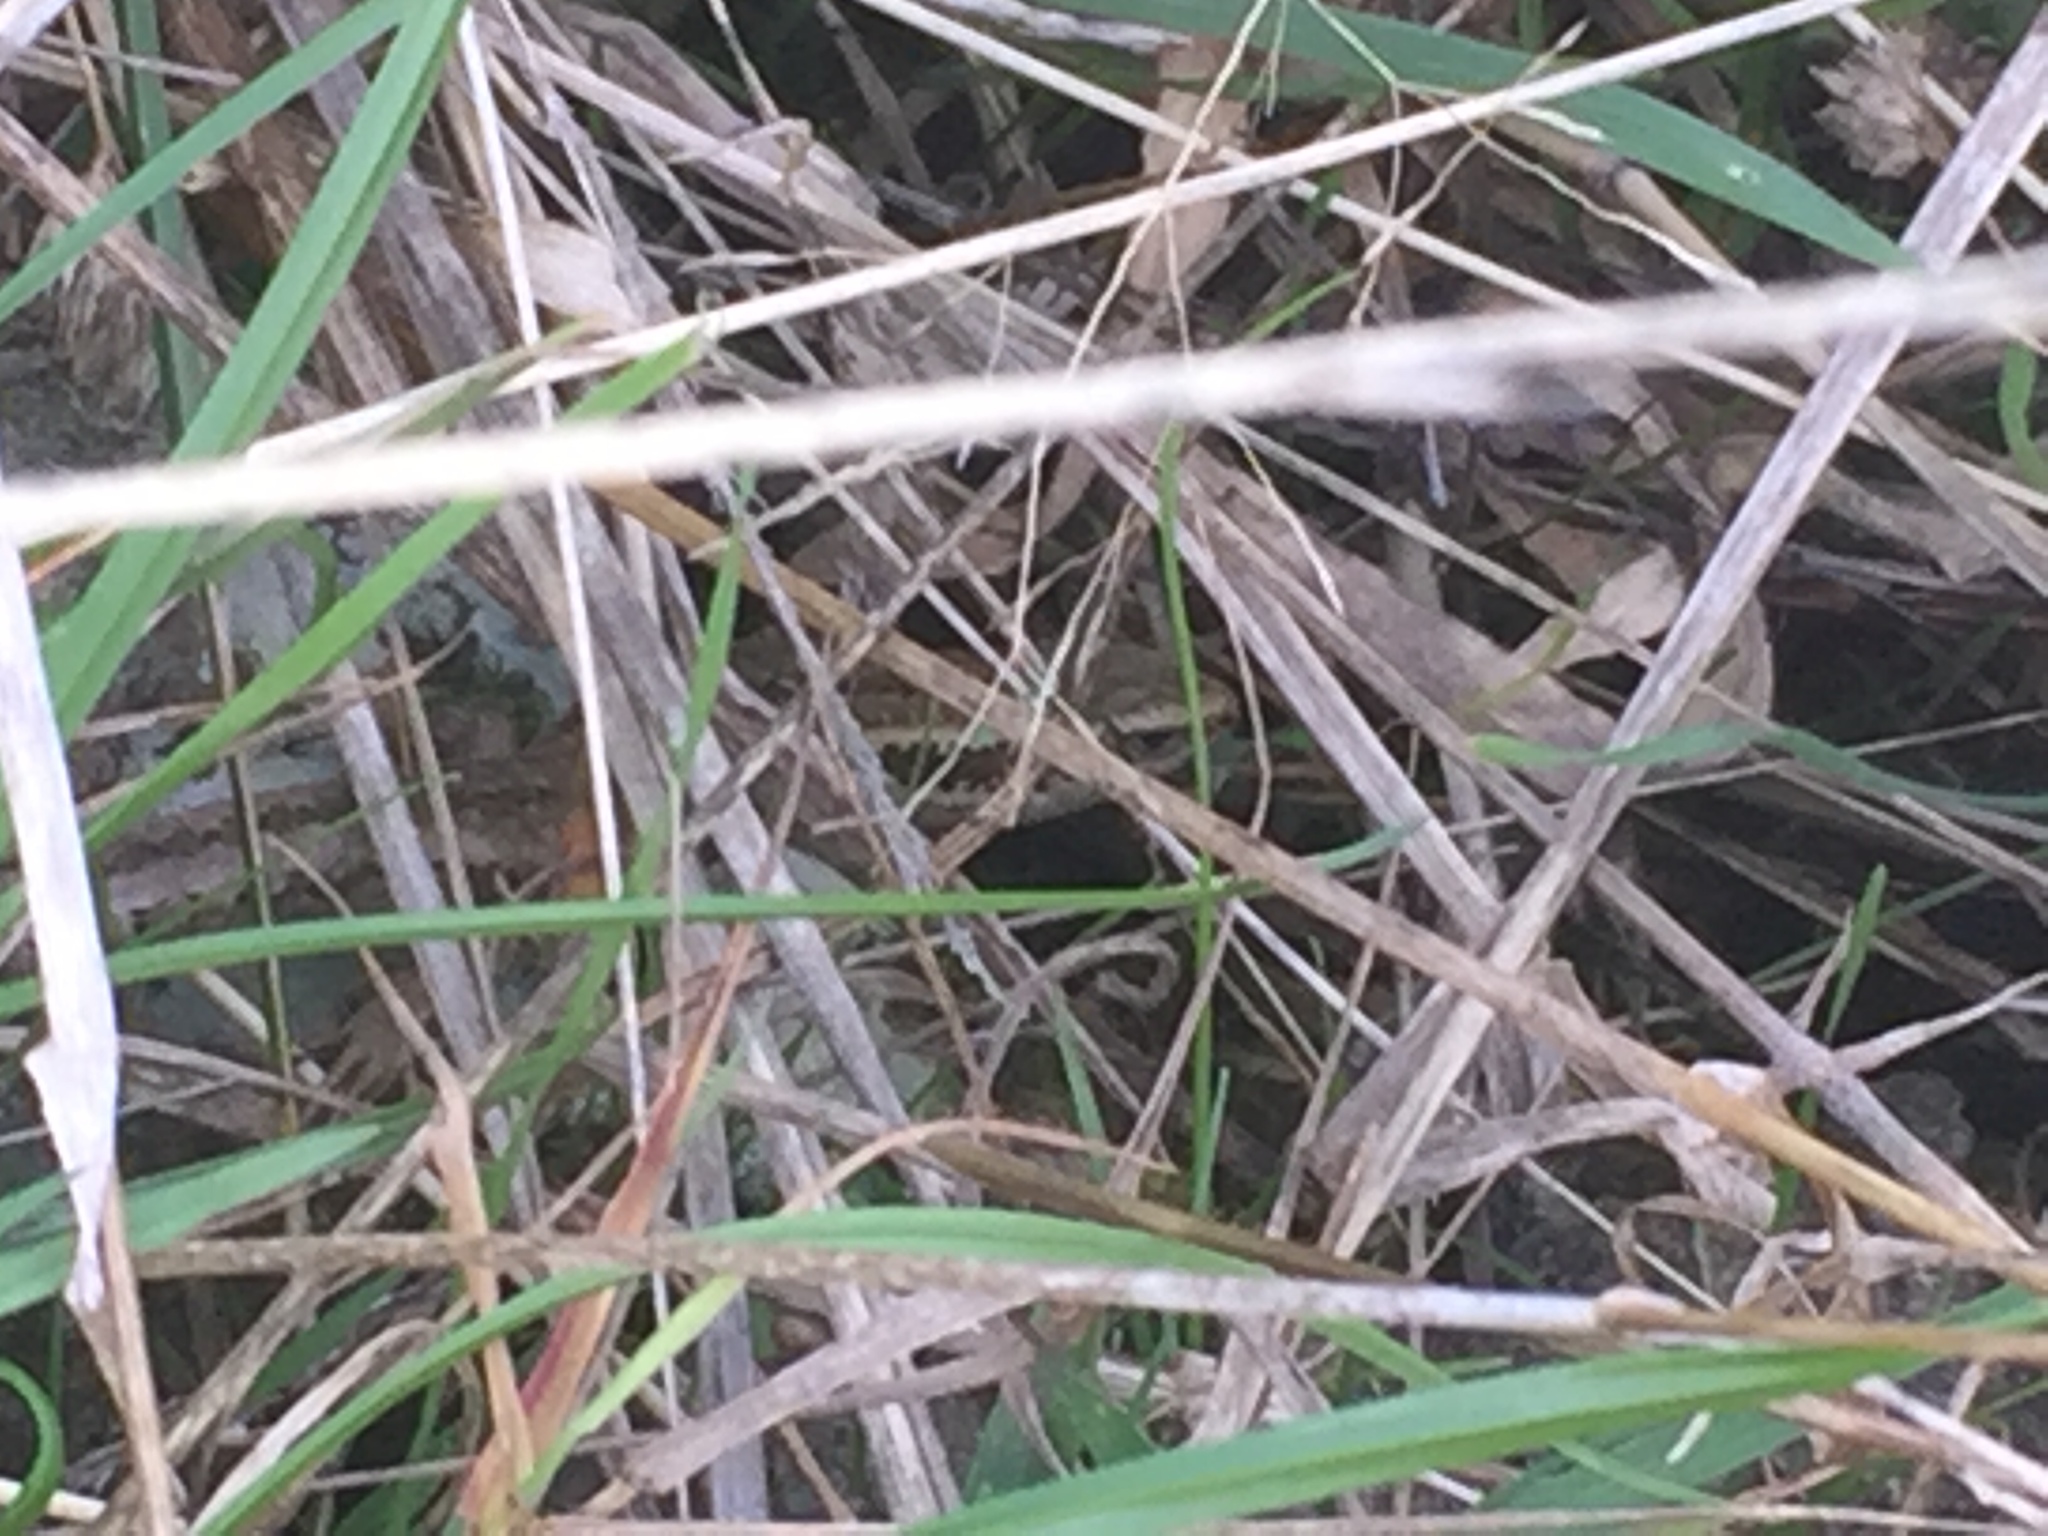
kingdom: Animalia
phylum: Chordata
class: Squamata
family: Scincidae
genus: Oligosoma
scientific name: Oligosoma polychroma
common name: Common new zealand skink
